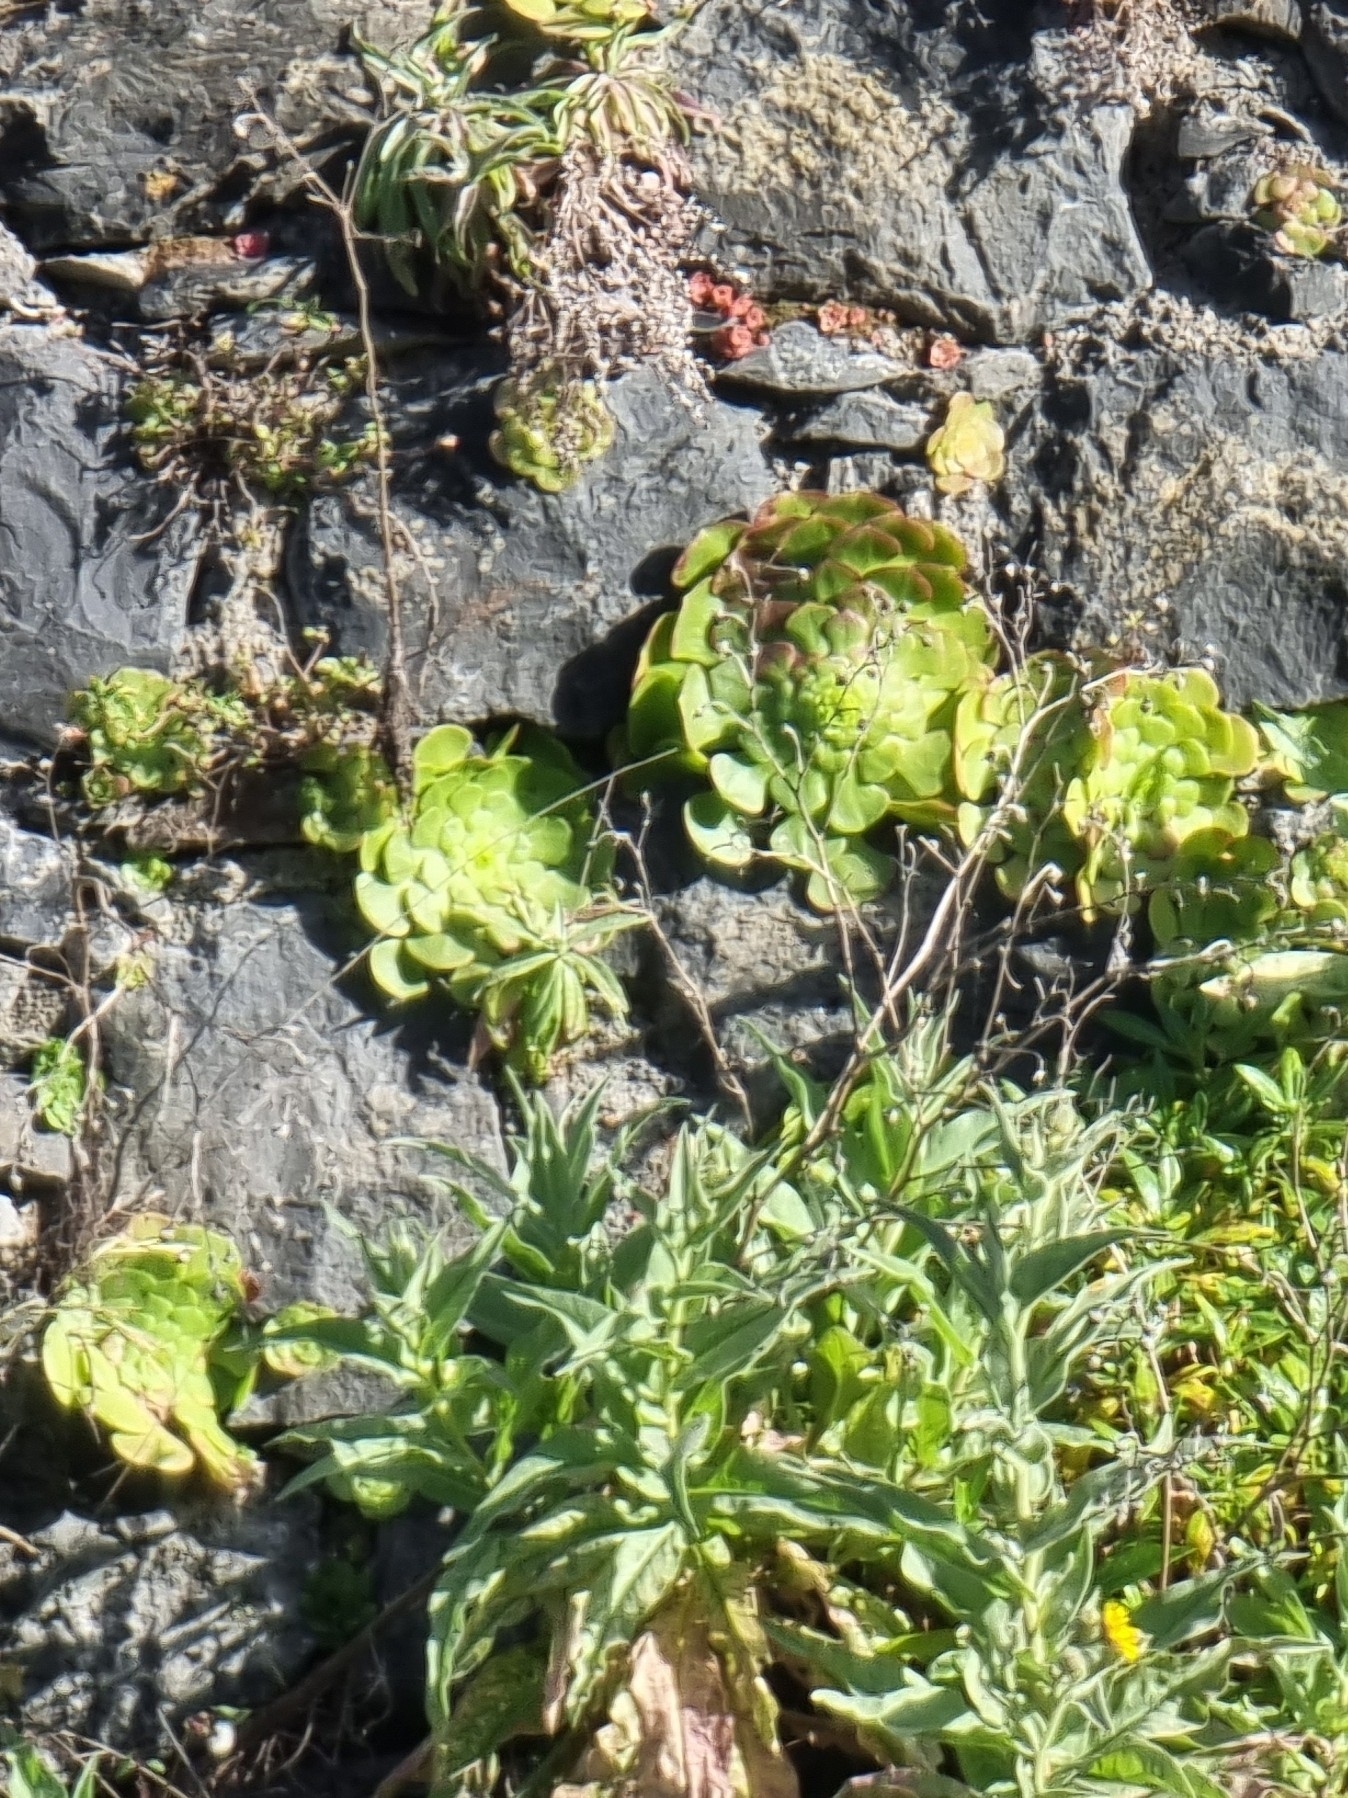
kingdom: Plantae
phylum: Tracheophyta
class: Magnoliopsida
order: Saxifragales
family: Crassulaceae
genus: Aeonium
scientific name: Aeonium glandulosum
